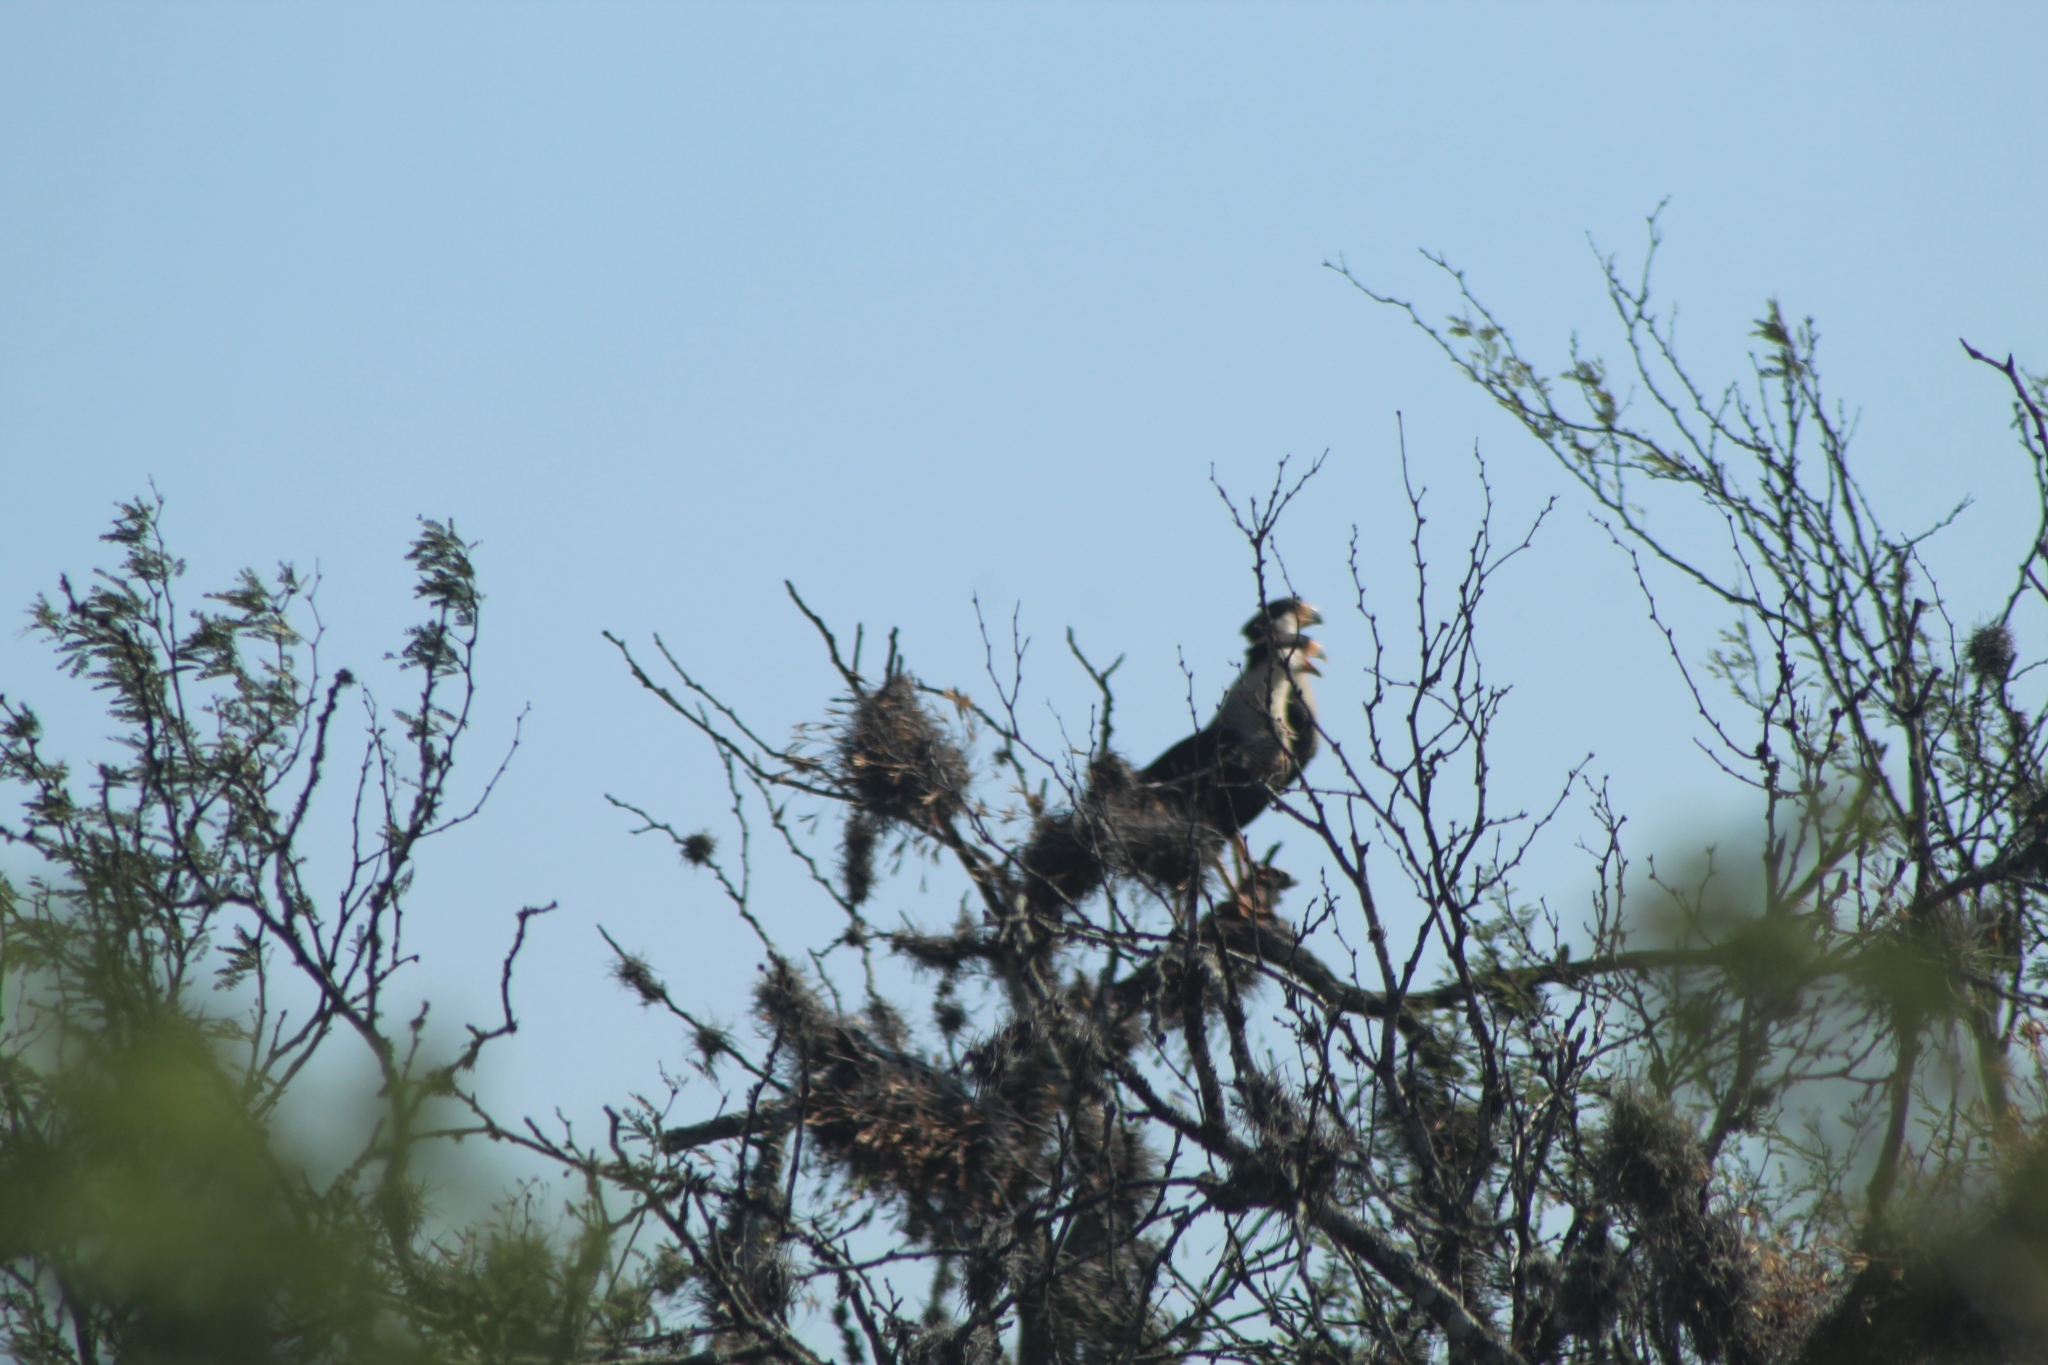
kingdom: Animalia
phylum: Chordata
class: Aves
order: Falconiformes
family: Falconidae
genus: Caracara
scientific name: Caracara plancus
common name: Southern caracara
